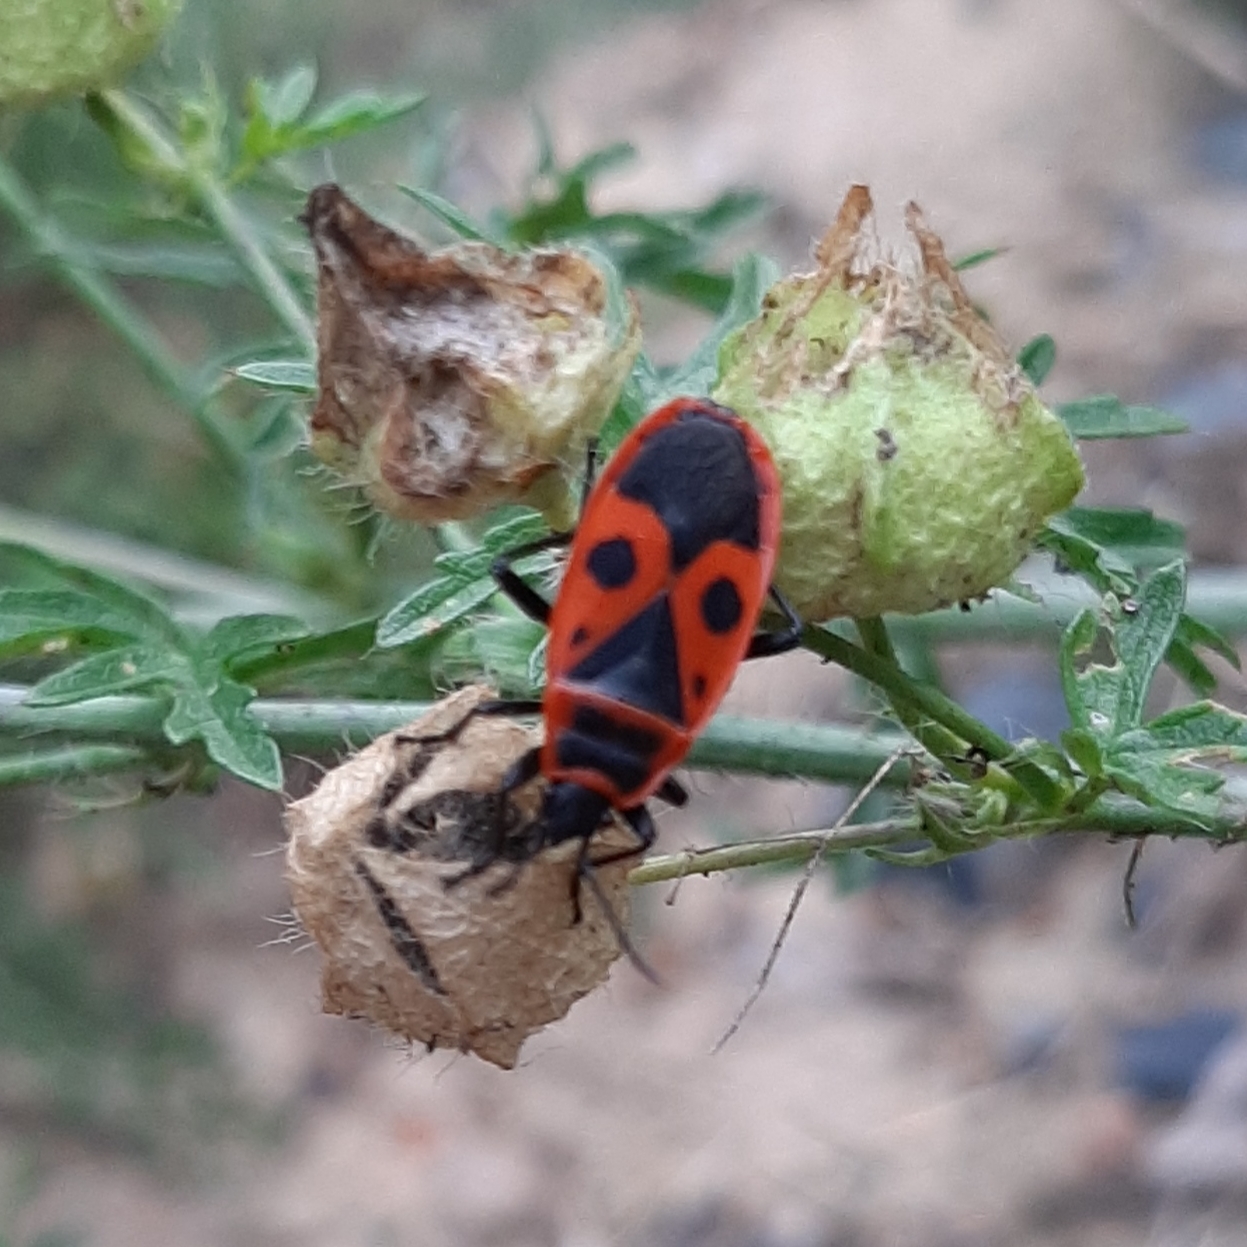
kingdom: Animalia
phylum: Arthropoda
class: Insecta
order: Hemiptera
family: Pyrrhocoridae
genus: Pyrrhocoris
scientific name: Pyrrhocoris apterus
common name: Firebug
